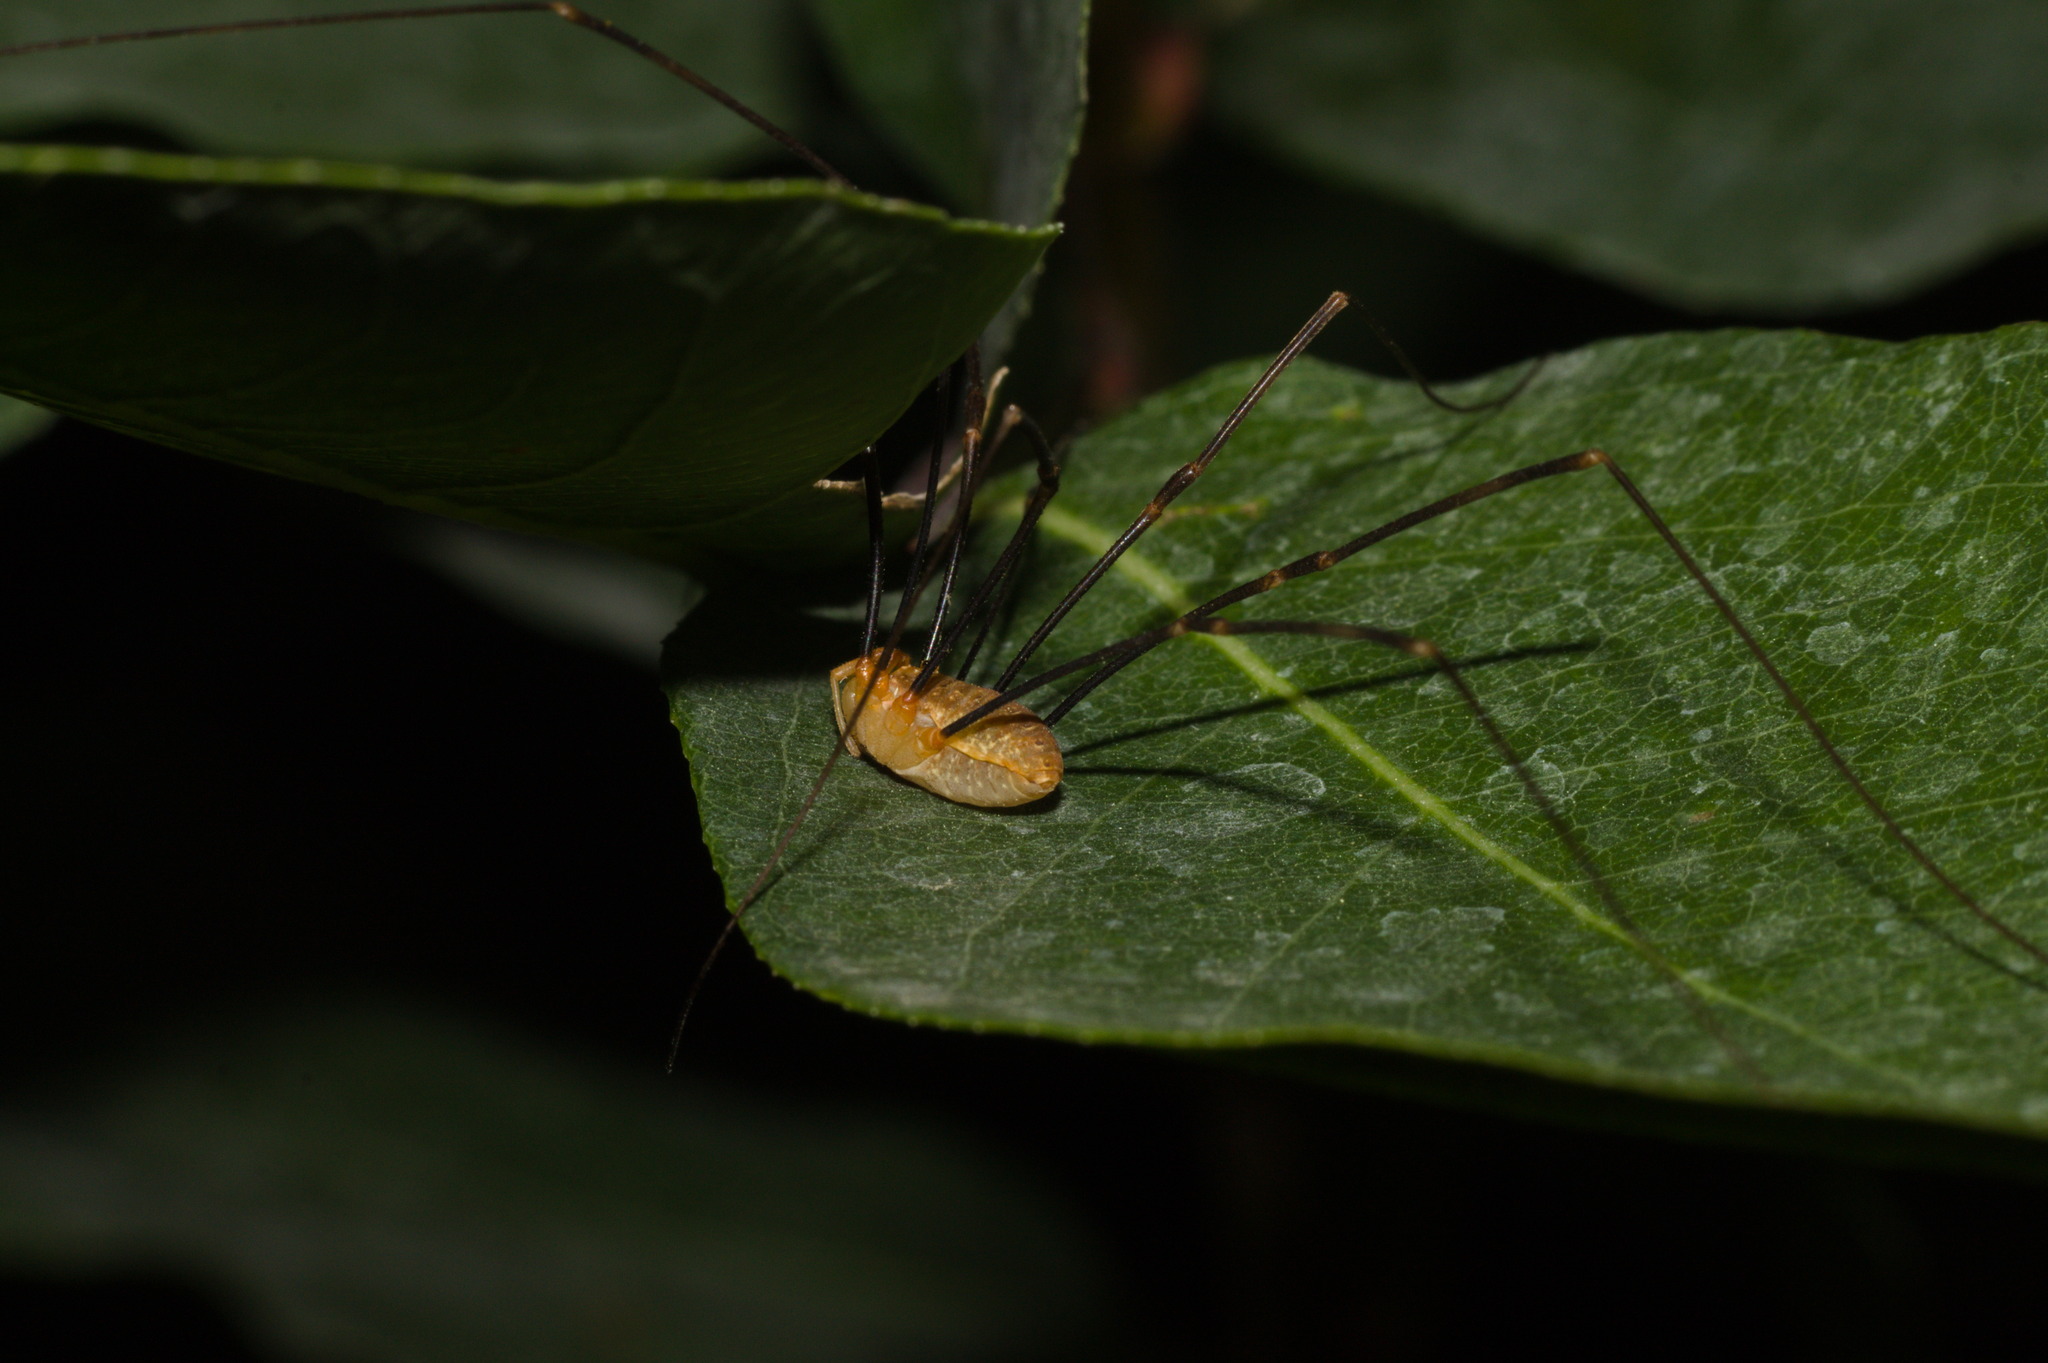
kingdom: Animalia
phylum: Arthropoda
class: Arachnida
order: Opiliones
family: Phalangiidae
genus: Opilio
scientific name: Opilio canestrinii
